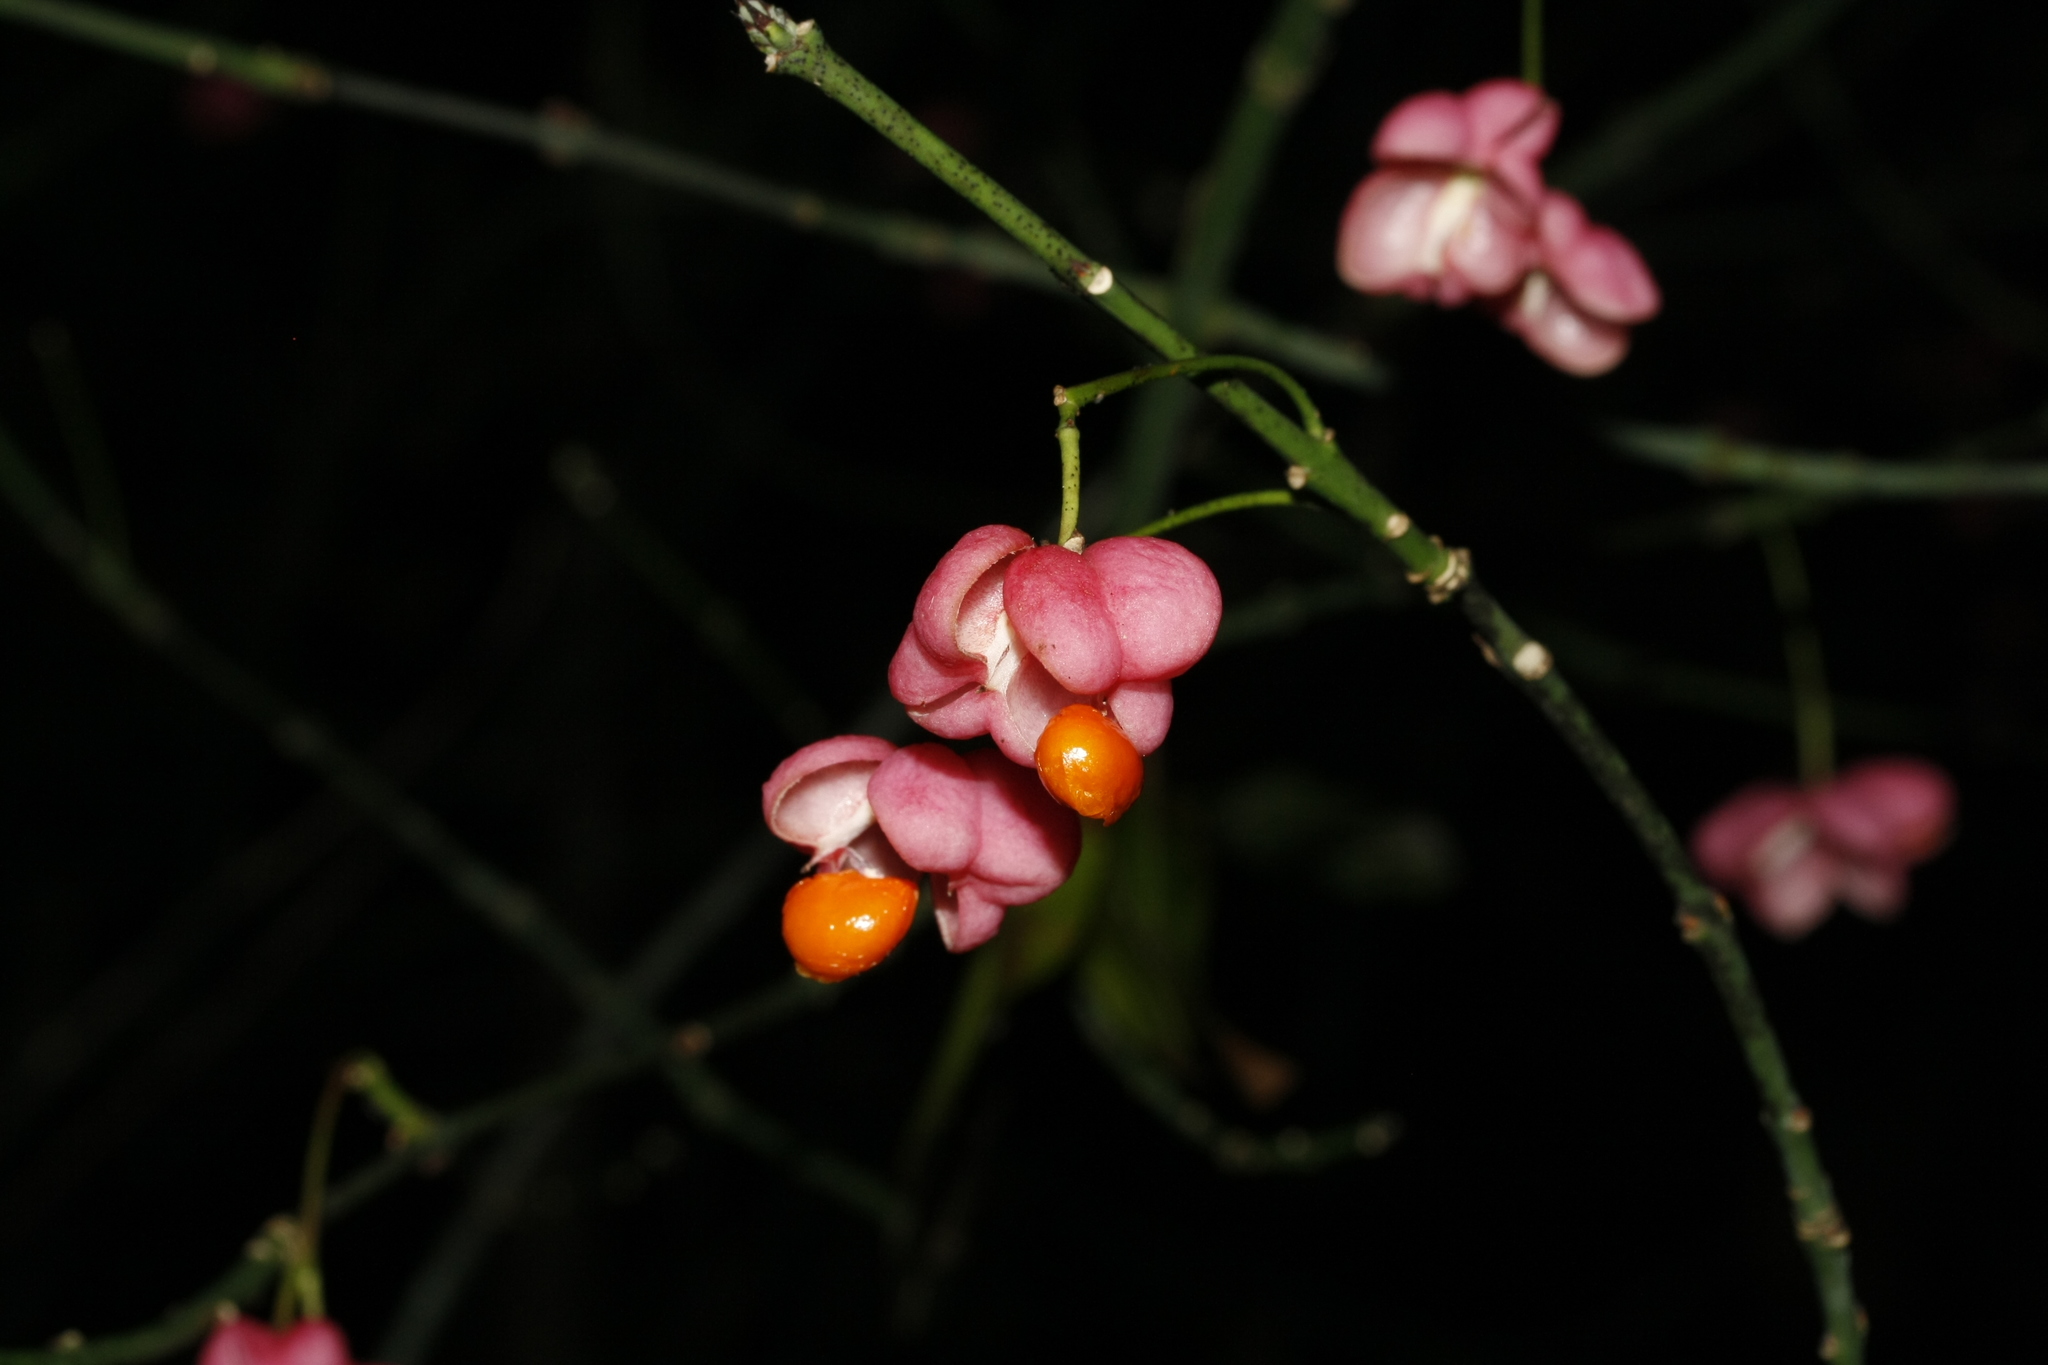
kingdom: Plantae
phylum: Tracheophyta
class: Magnoliopsida
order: Celastrales
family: Celastraceae
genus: Euonymus
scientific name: Euonymus europaeus
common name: Spindle
